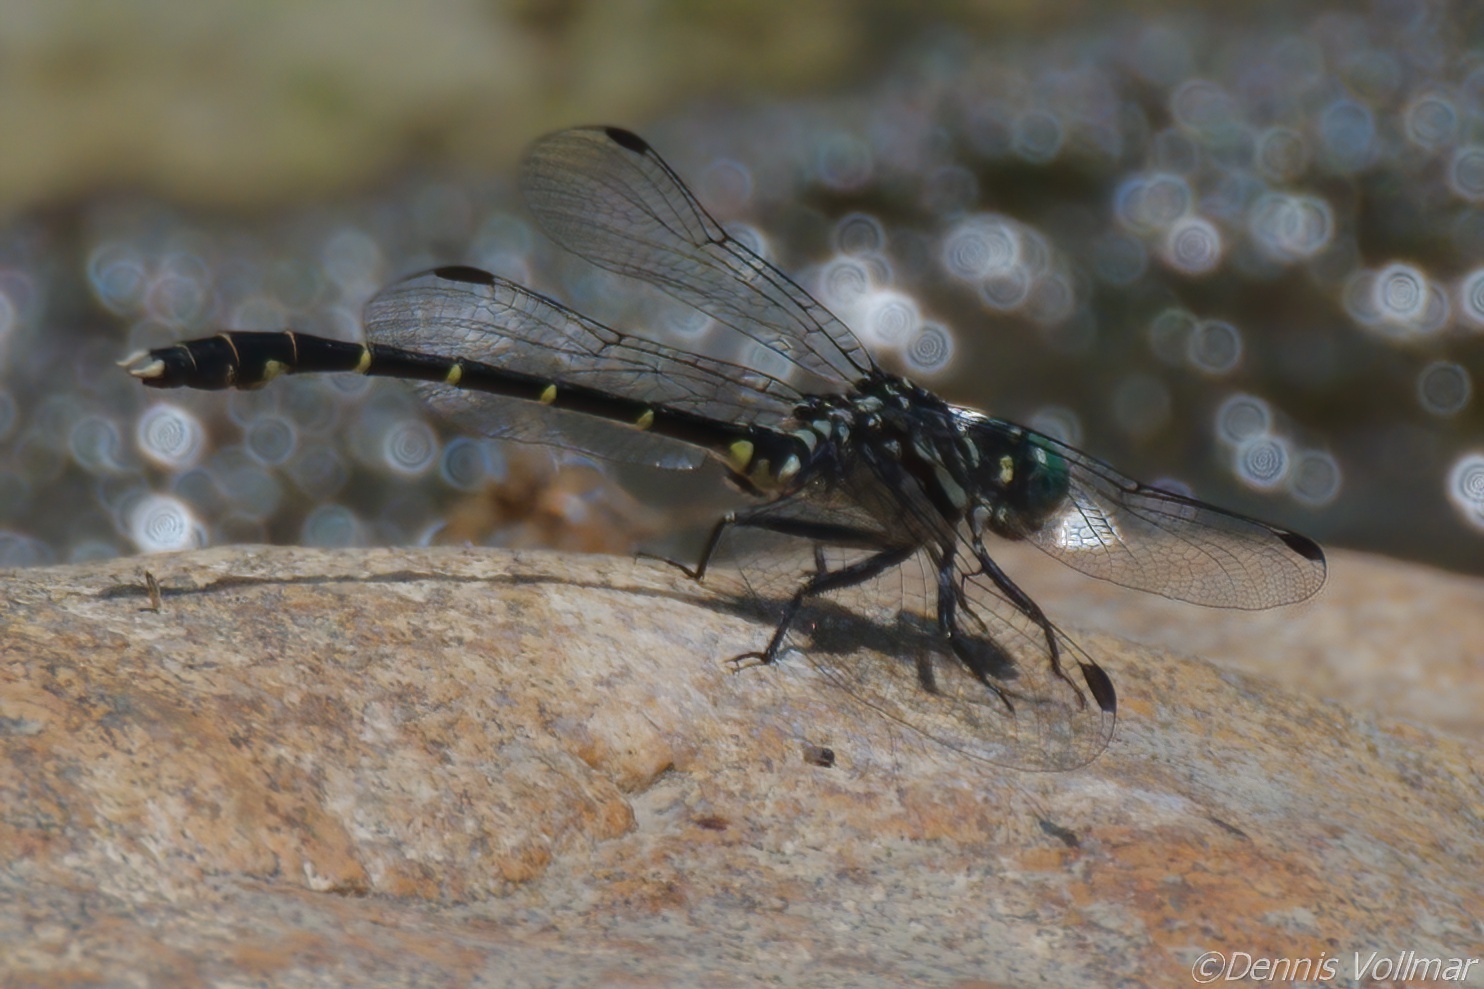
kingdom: Animalia
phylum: Arthropoda
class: Insecta
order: Odonata
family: Gomphidae
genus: Stylogomphus
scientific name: Stylogomphus albistylus
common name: Eastern least clubtail
